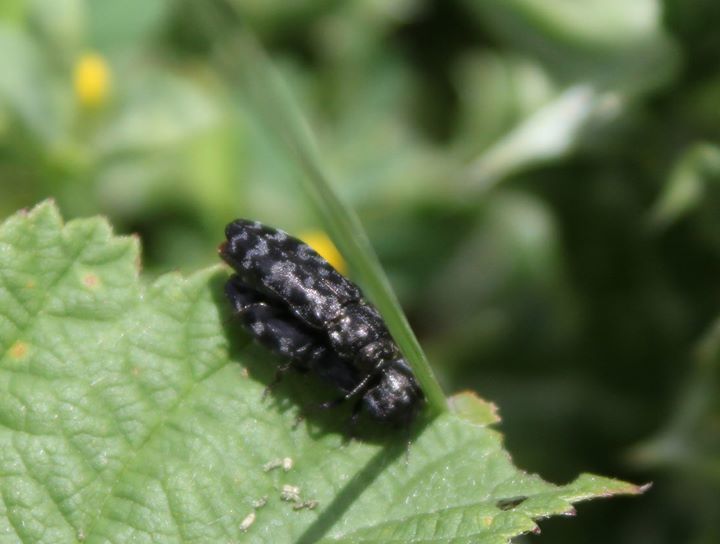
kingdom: Animalia
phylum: Arthropoda
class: Insecta
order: Coleoptera
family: Buprestidae
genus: Coraebus
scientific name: Coraebus rubi
